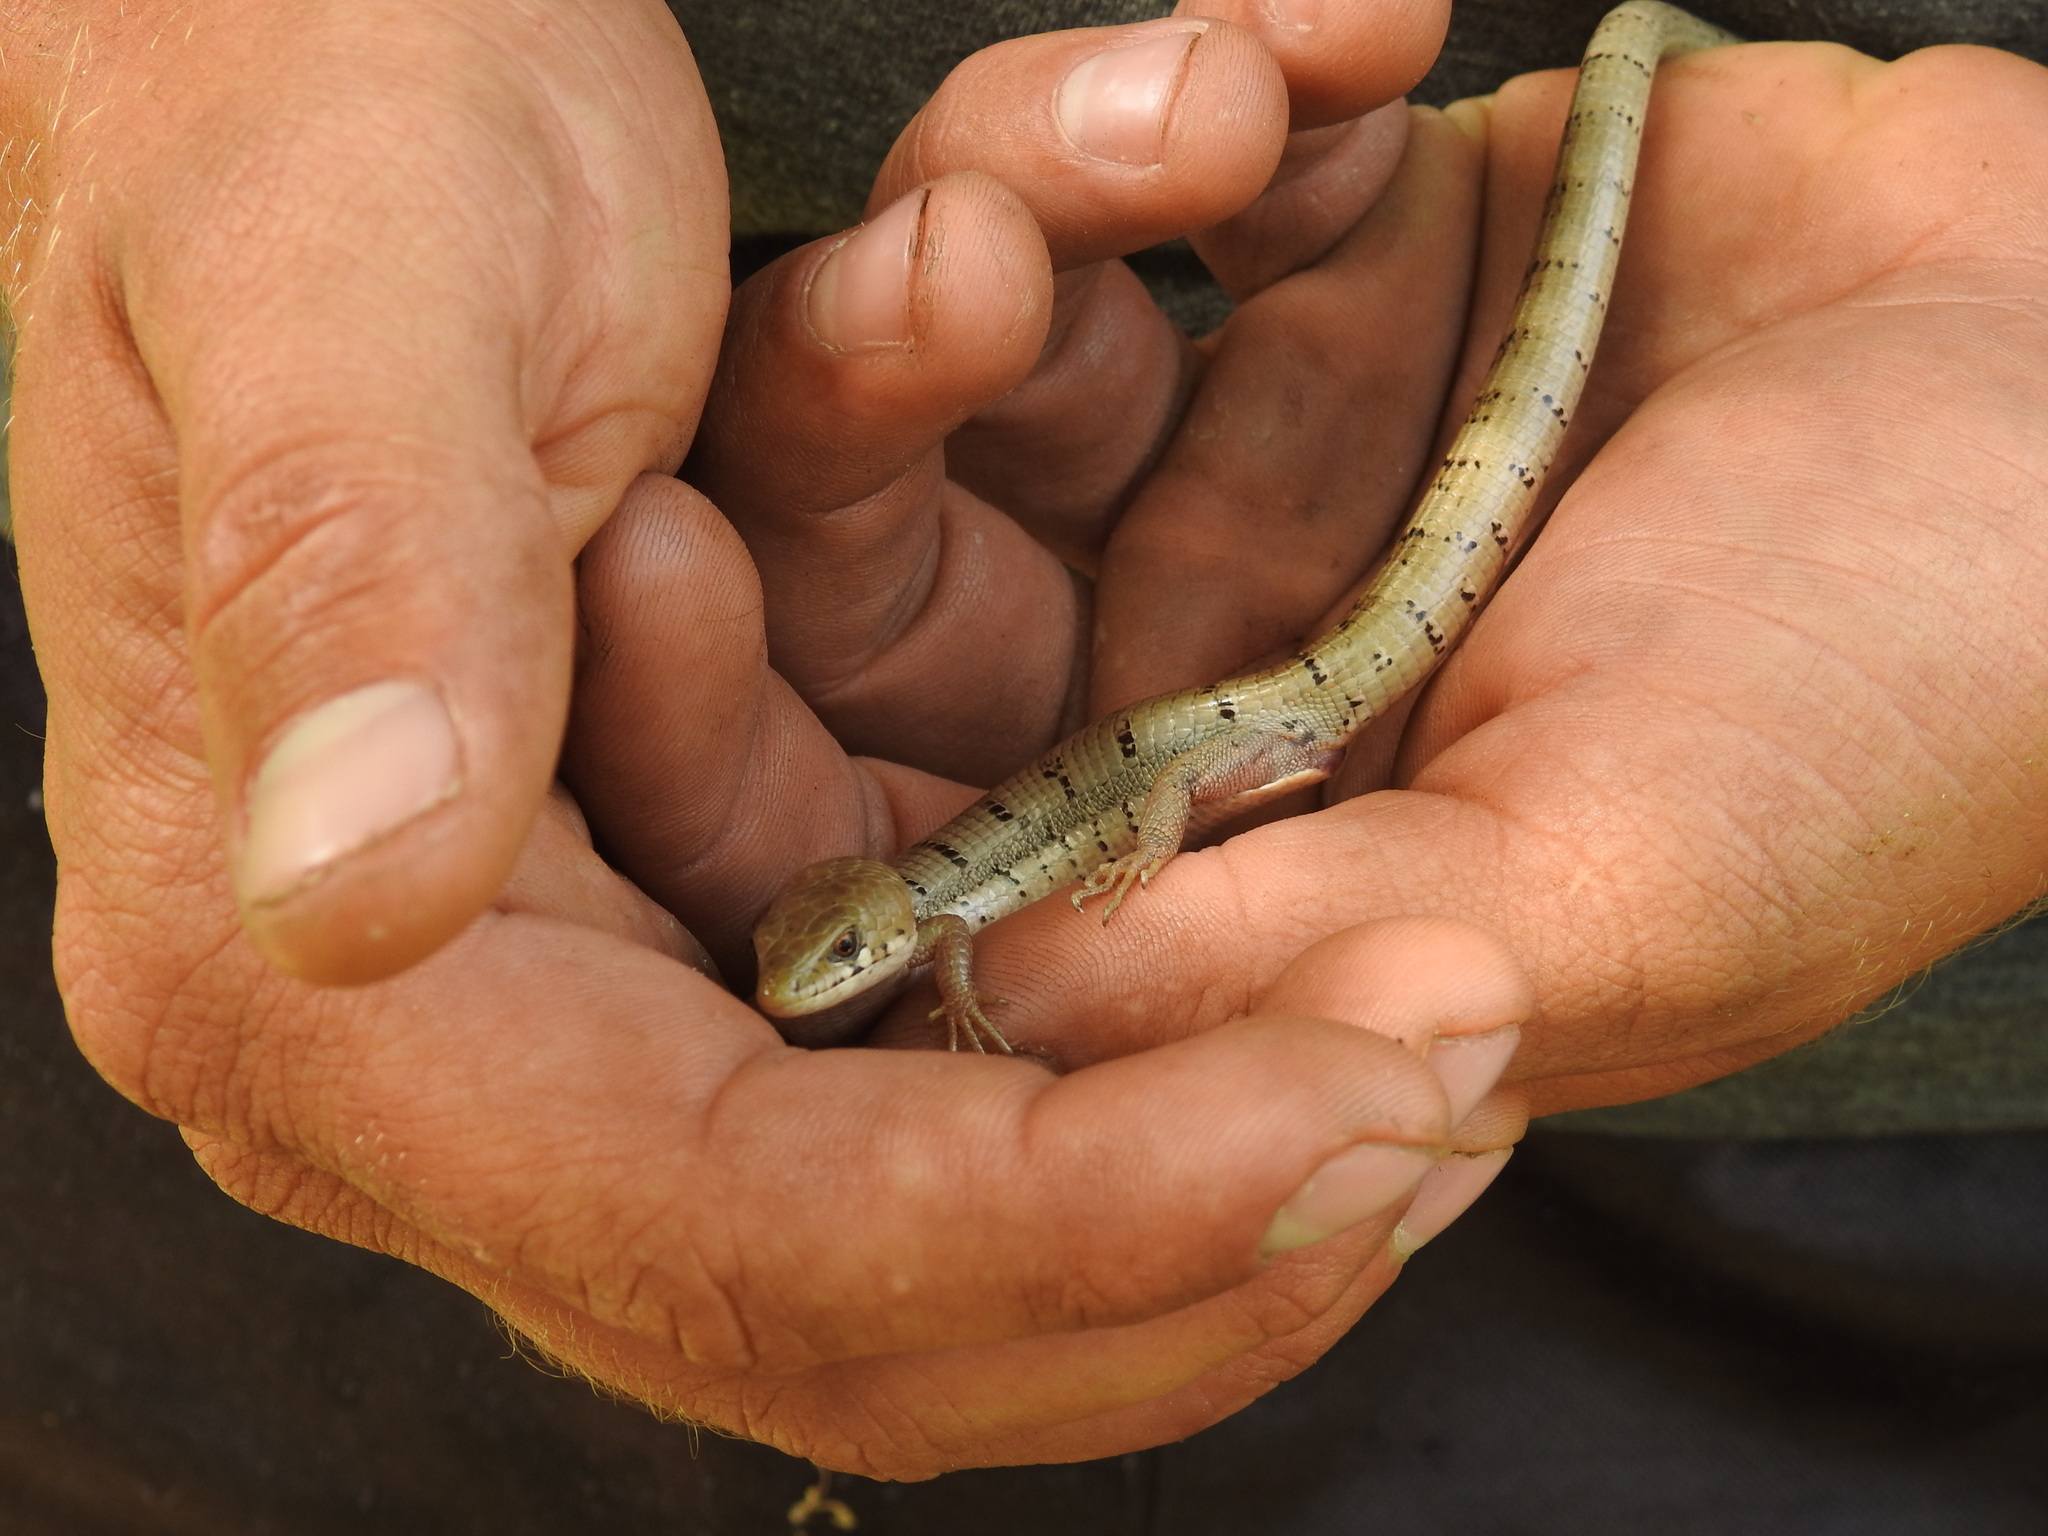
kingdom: Animalia
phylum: Chordata
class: Squamata
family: Anguidae
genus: Elgaria
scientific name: Elgaria kingii
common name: Madrean alligator lizard
